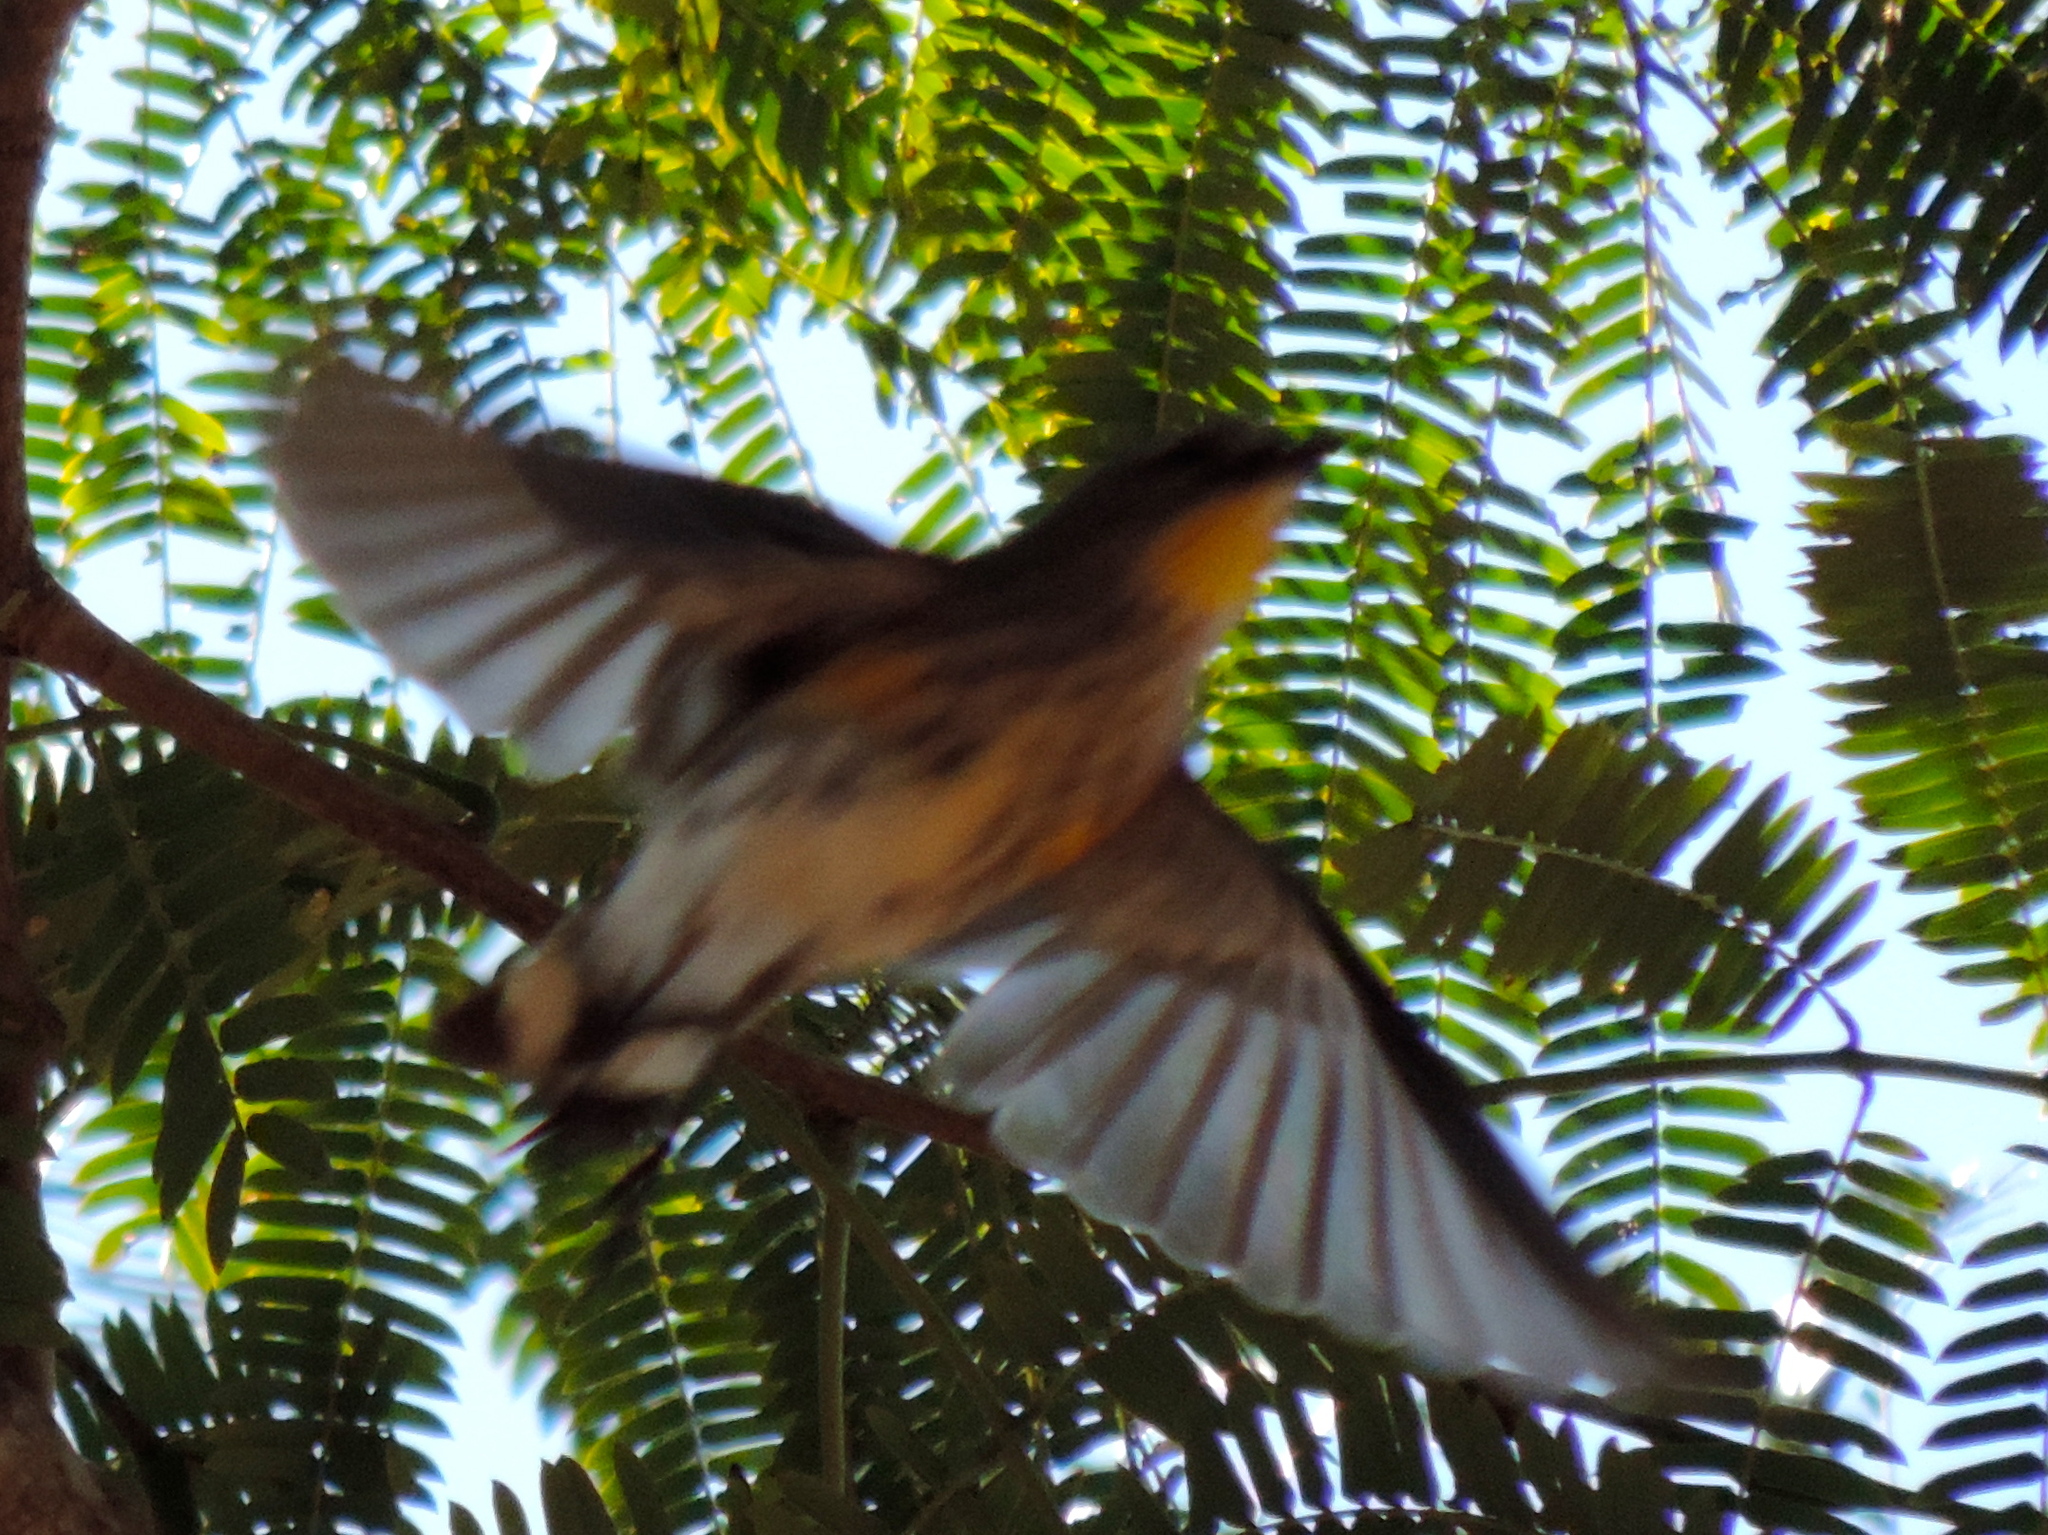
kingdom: Animalia
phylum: Chordata
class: Aves
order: Passeriformes
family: Parulidae
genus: Setophaga
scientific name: Setophaga coronata
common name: Myrtle warbler
